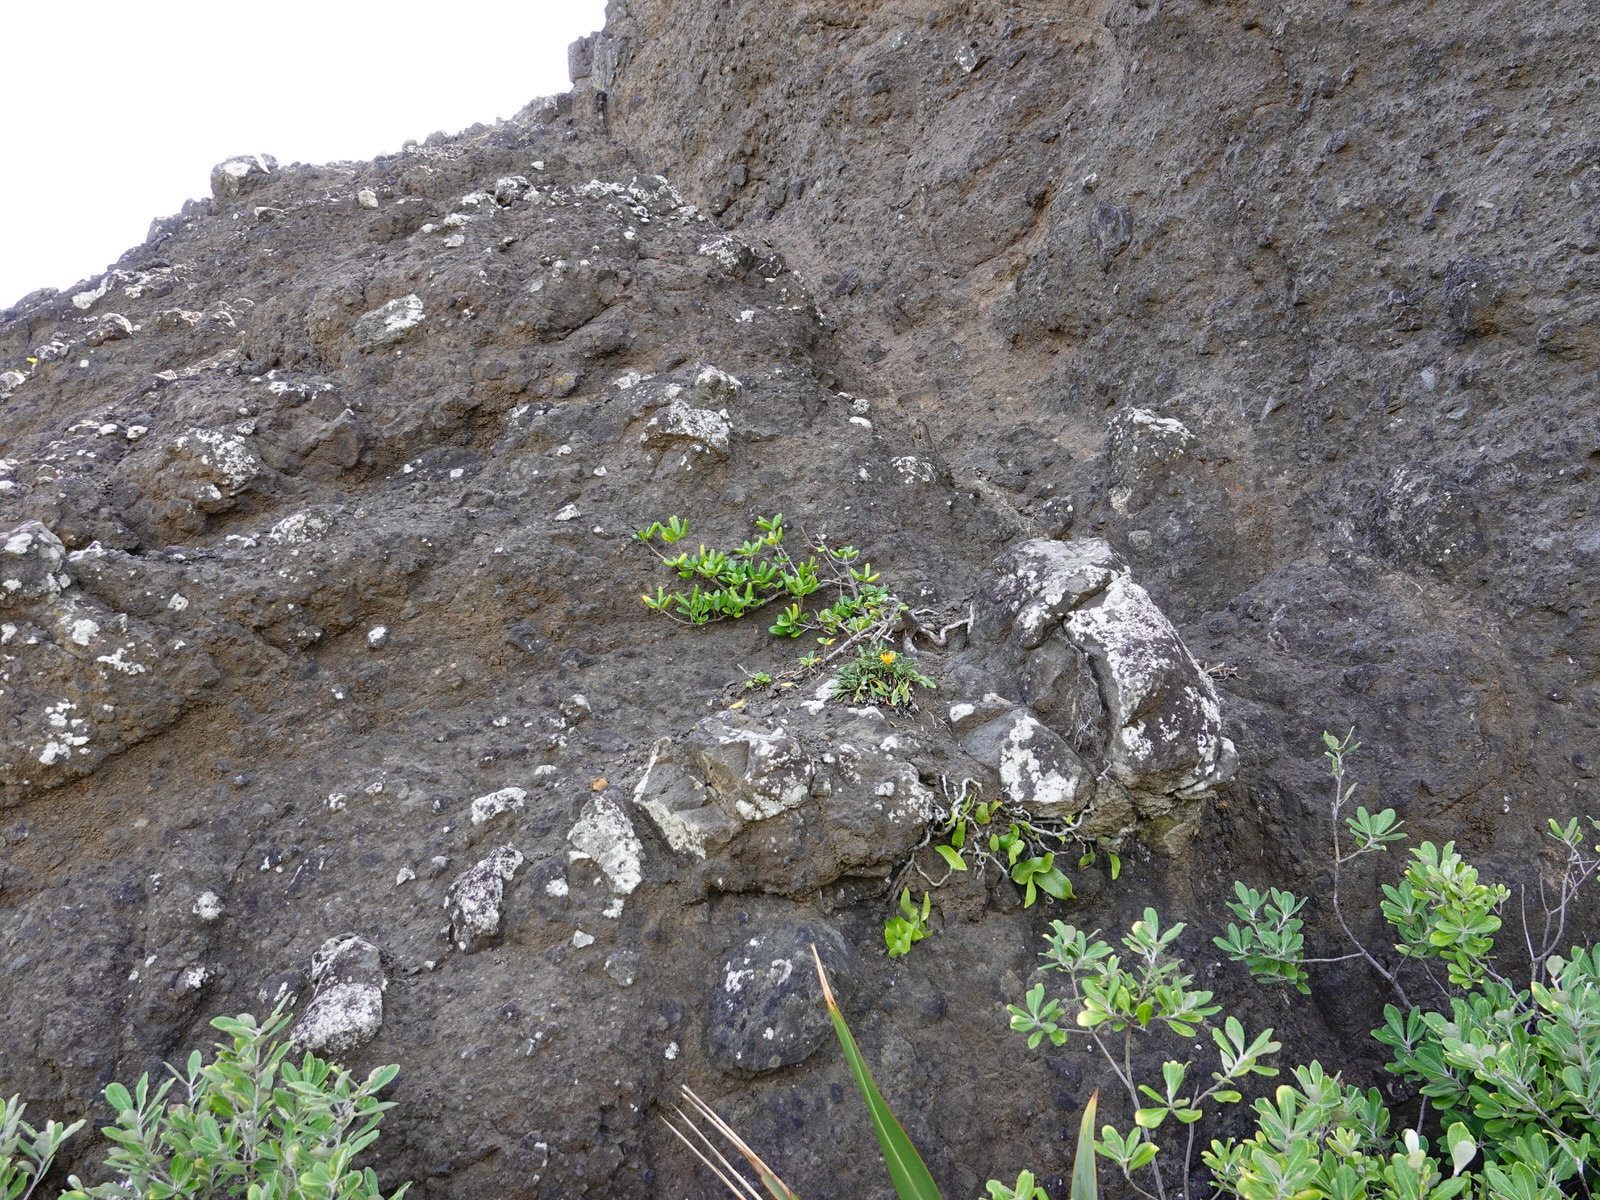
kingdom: Plantae
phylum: Tracheophyta
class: Polypodiopsida
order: Polypodiales
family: Polypodiaceae
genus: Lecanopteris
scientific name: Lecanopteris pustulata
